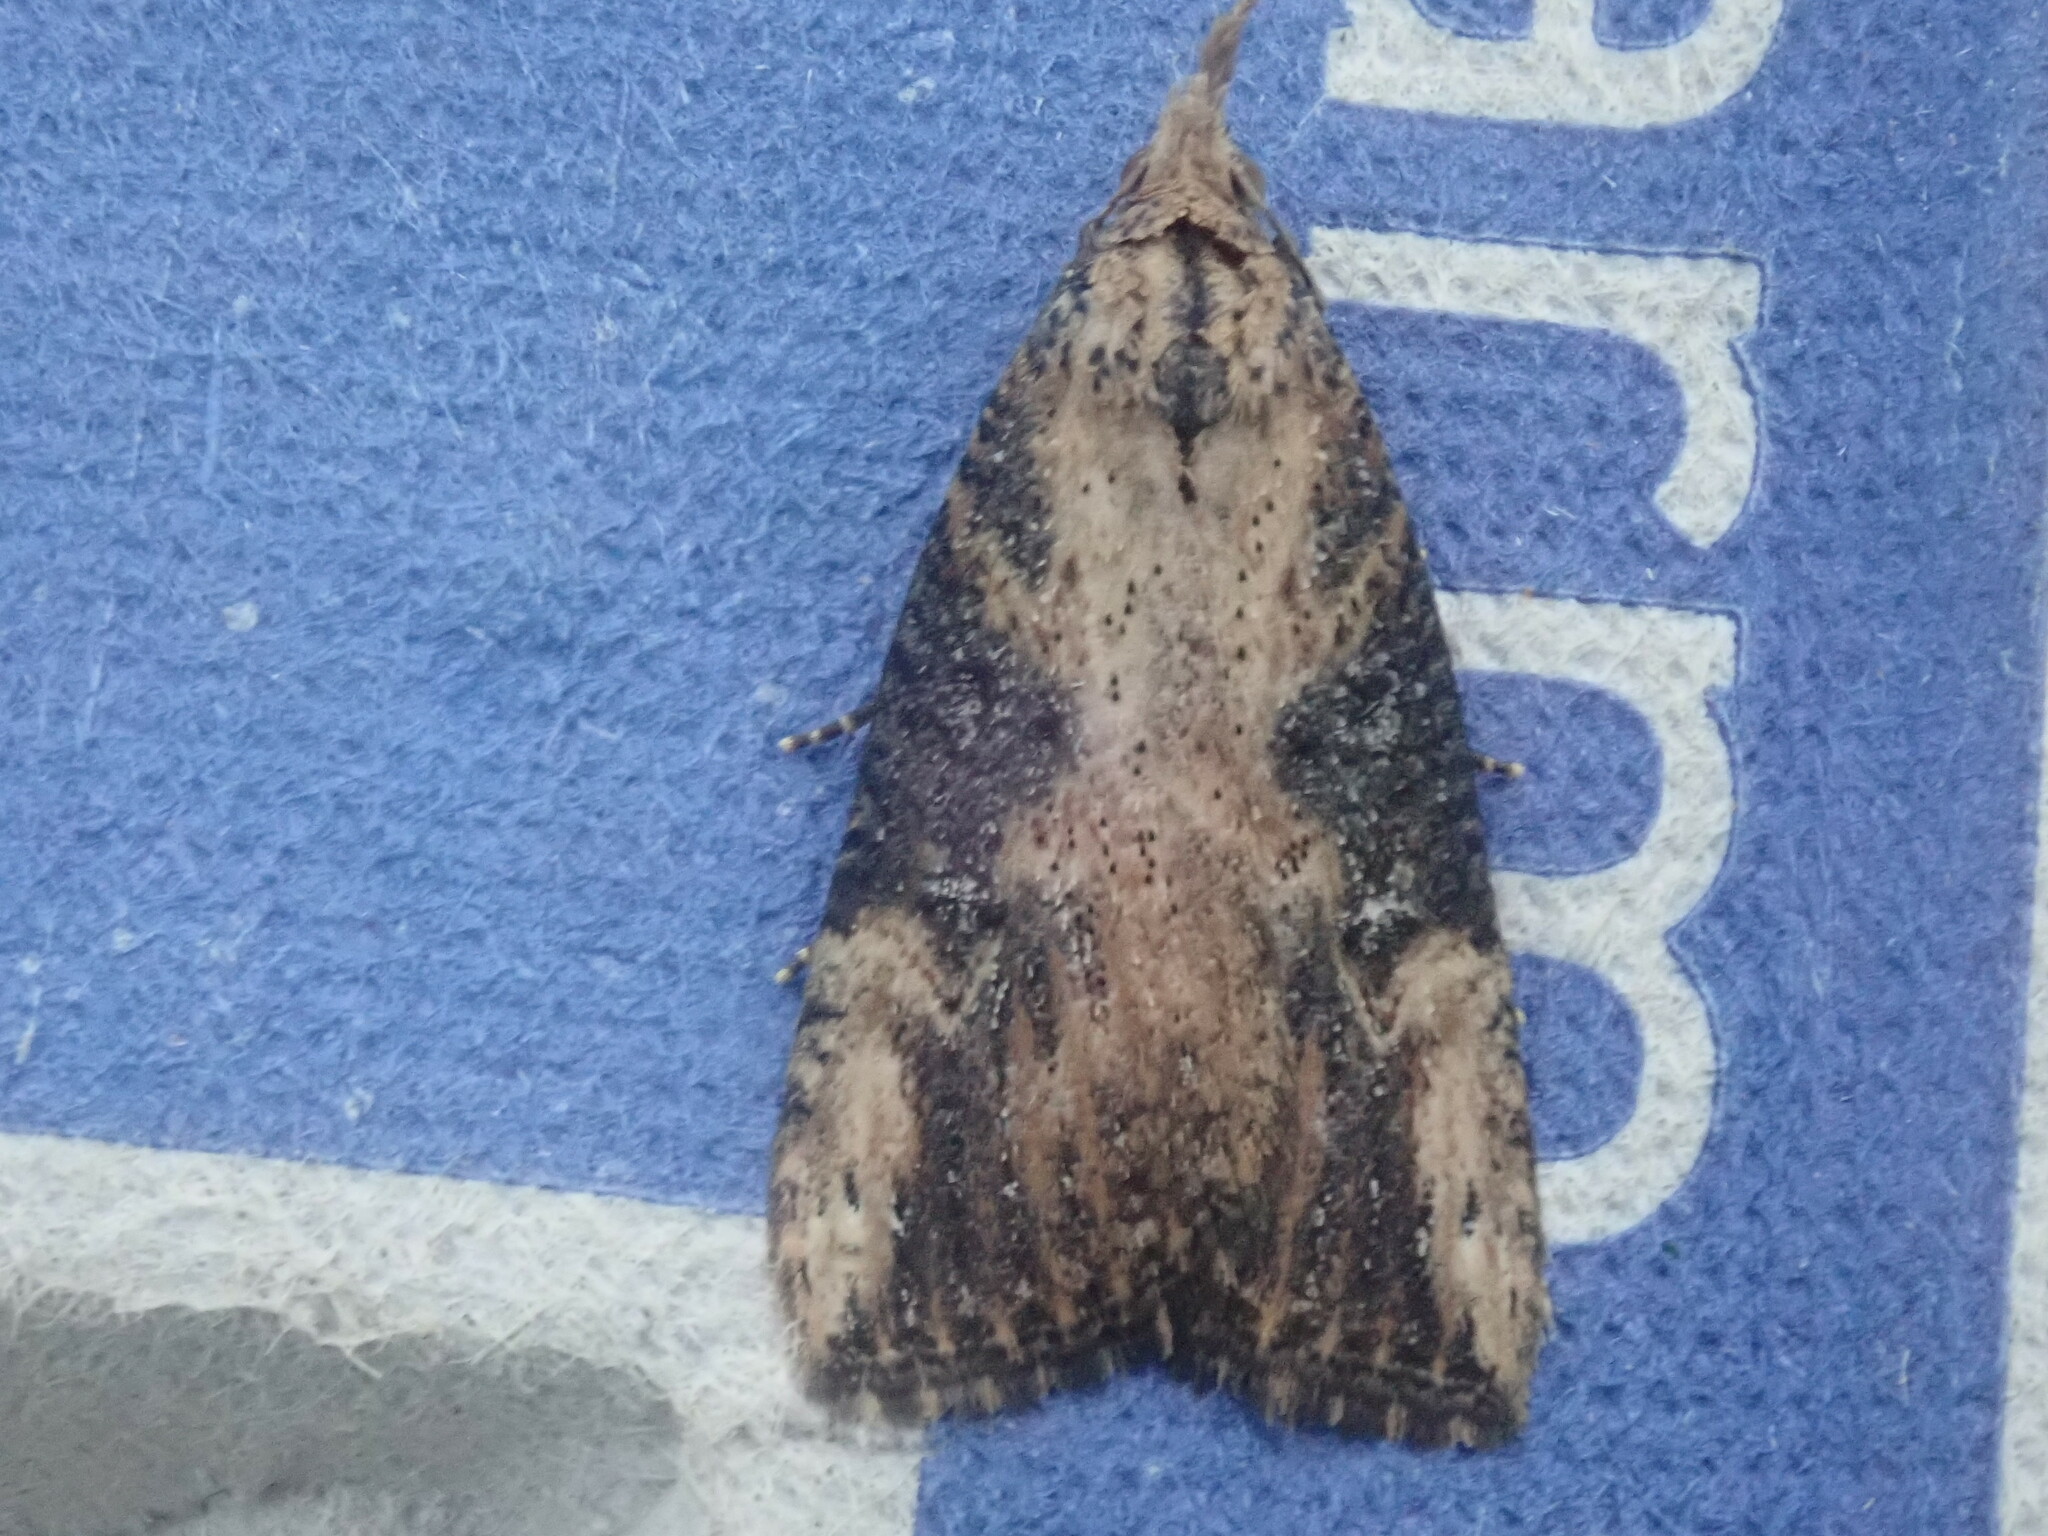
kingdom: Animalia
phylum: Arthropoda
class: Insecta
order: Lepidoptera
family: Erebidae
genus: Hypena
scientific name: Hypena humuli
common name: Hop vine snout
